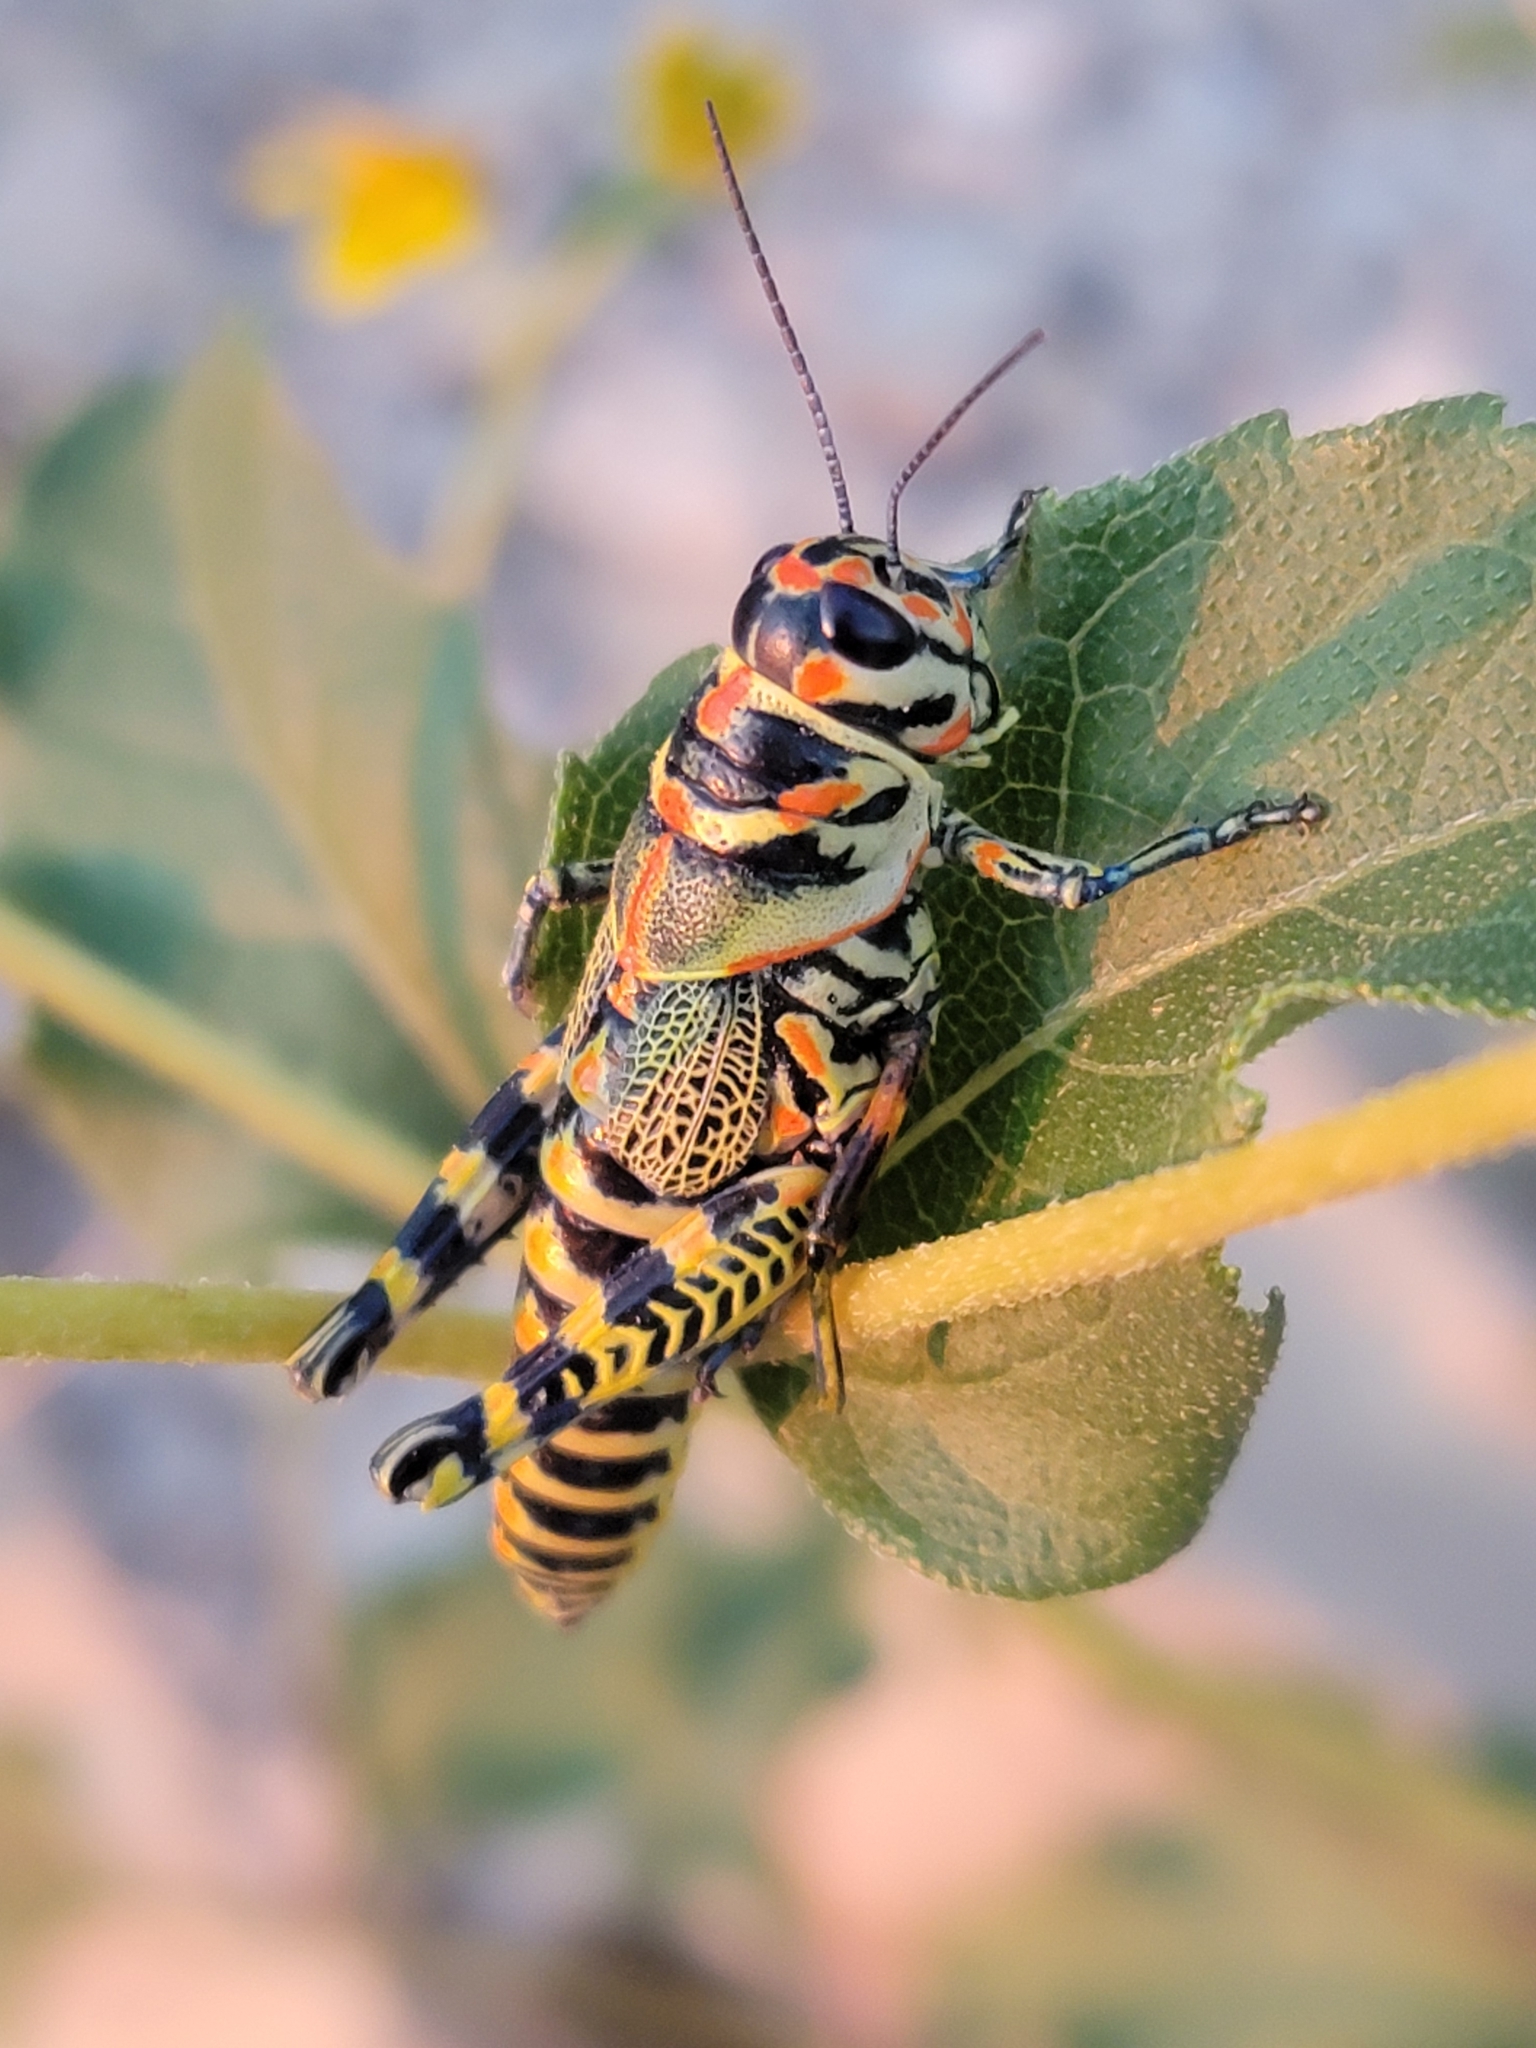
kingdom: Animalia
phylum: Arthropoda
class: Insecta
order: Orthoptera
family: Acrididae
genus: Dactylotum
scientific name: Dactylotum bicolor
